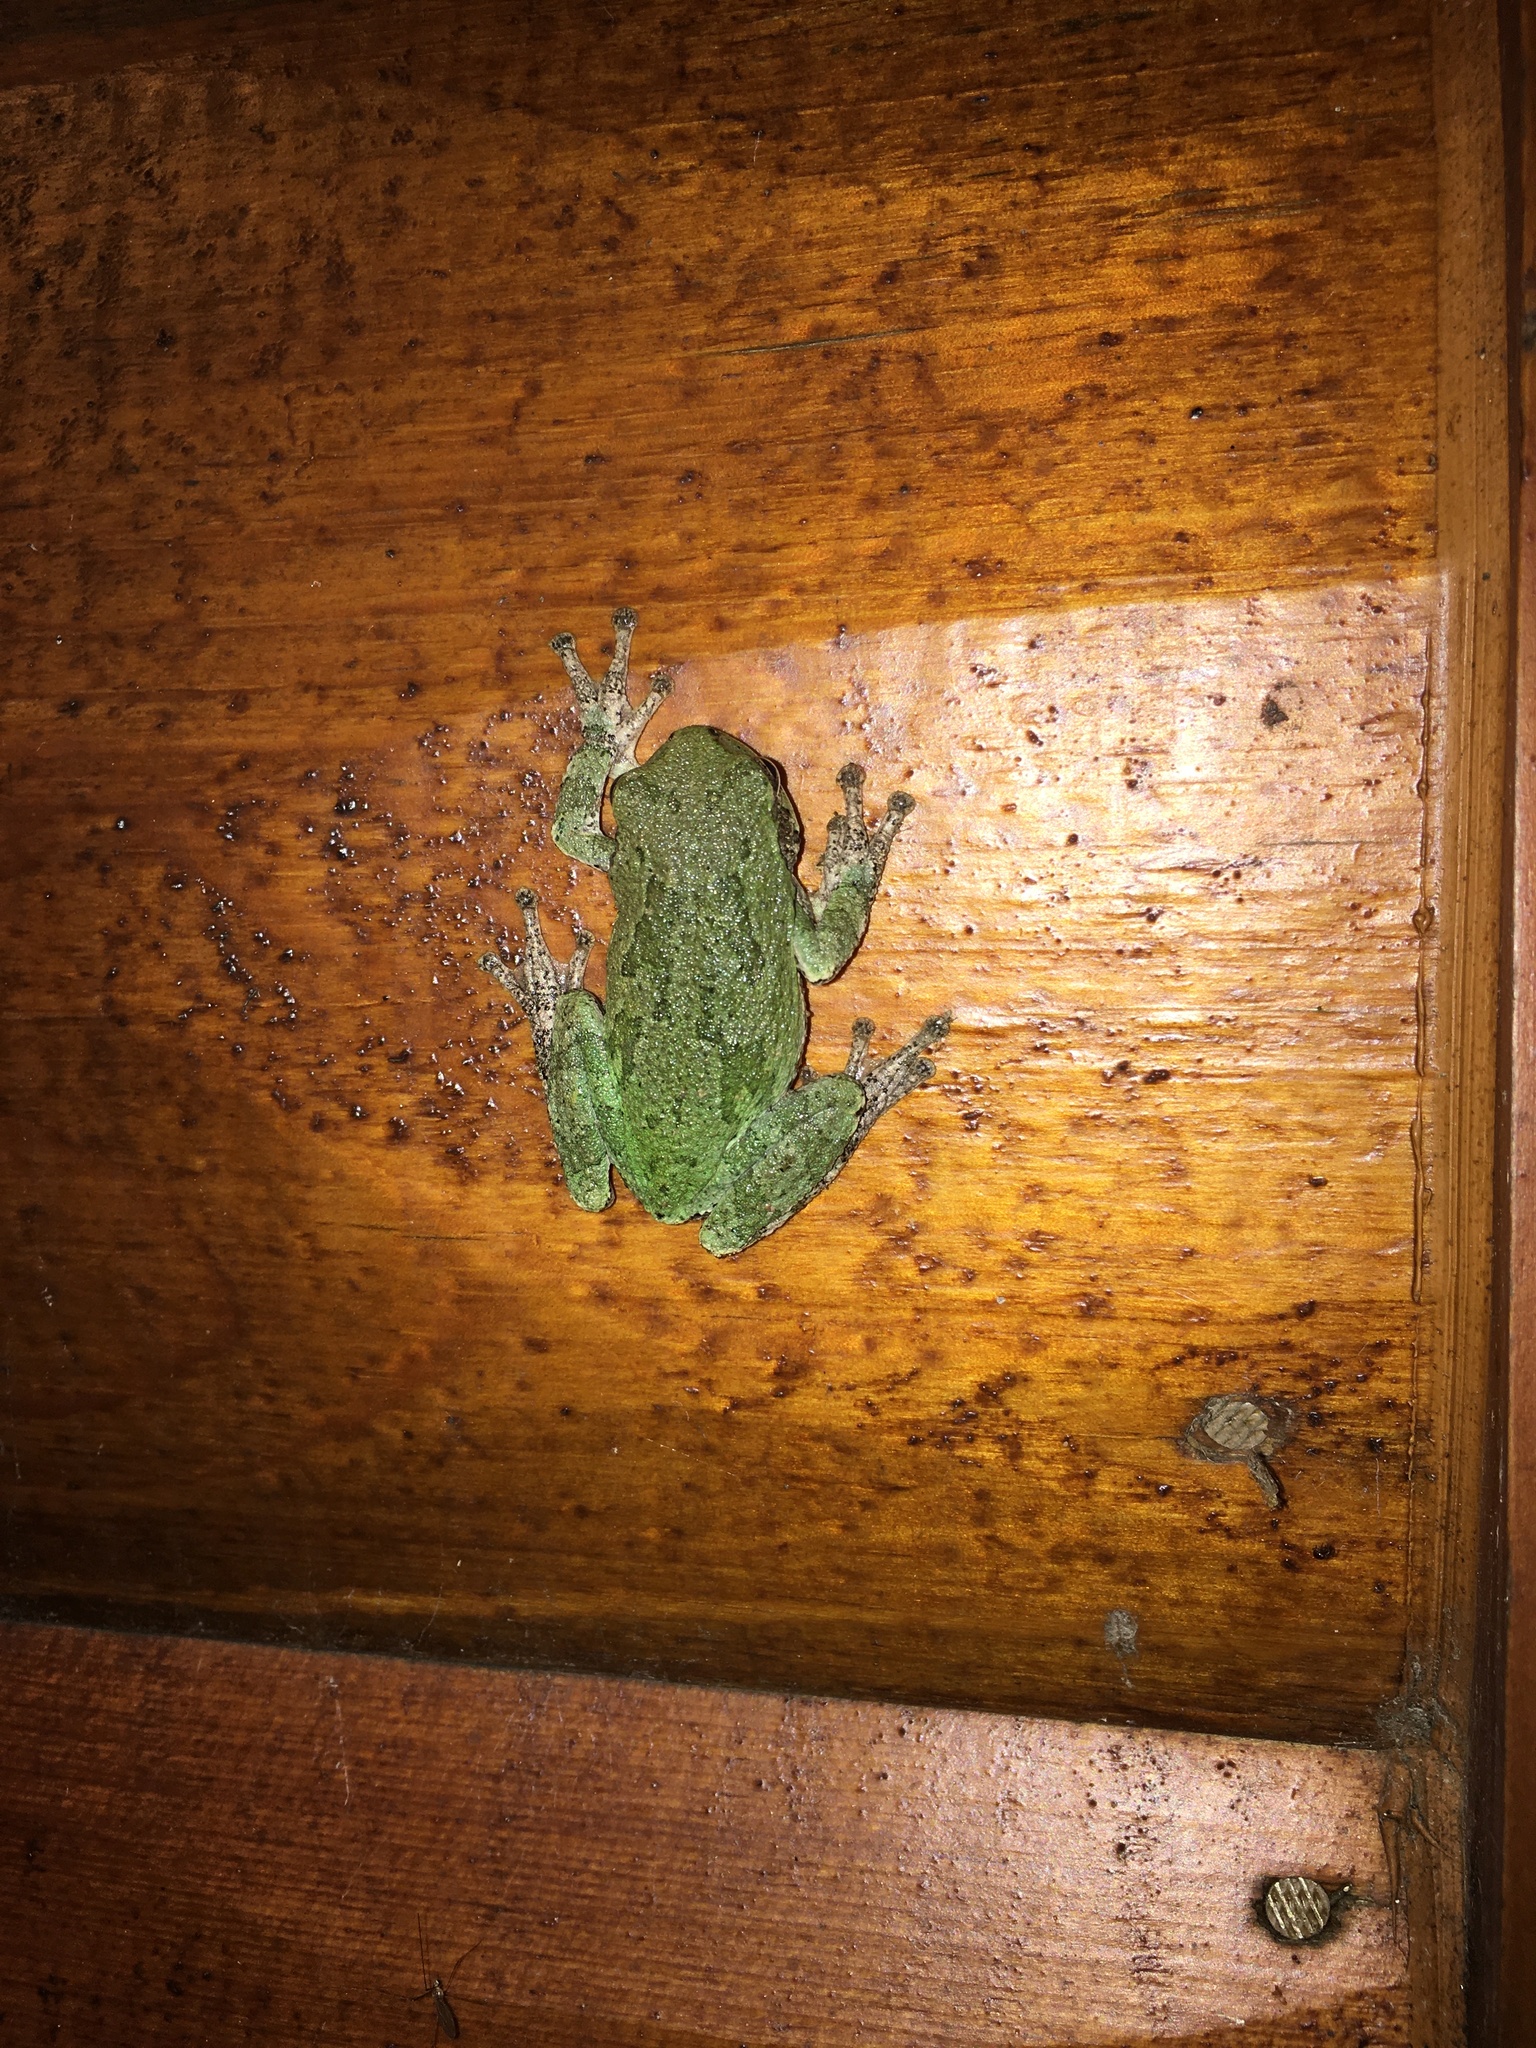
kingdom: Animalia
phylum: Chordata
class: Amphibia
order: Anura
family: Hylidae
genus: Hyla
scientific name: Hyla
